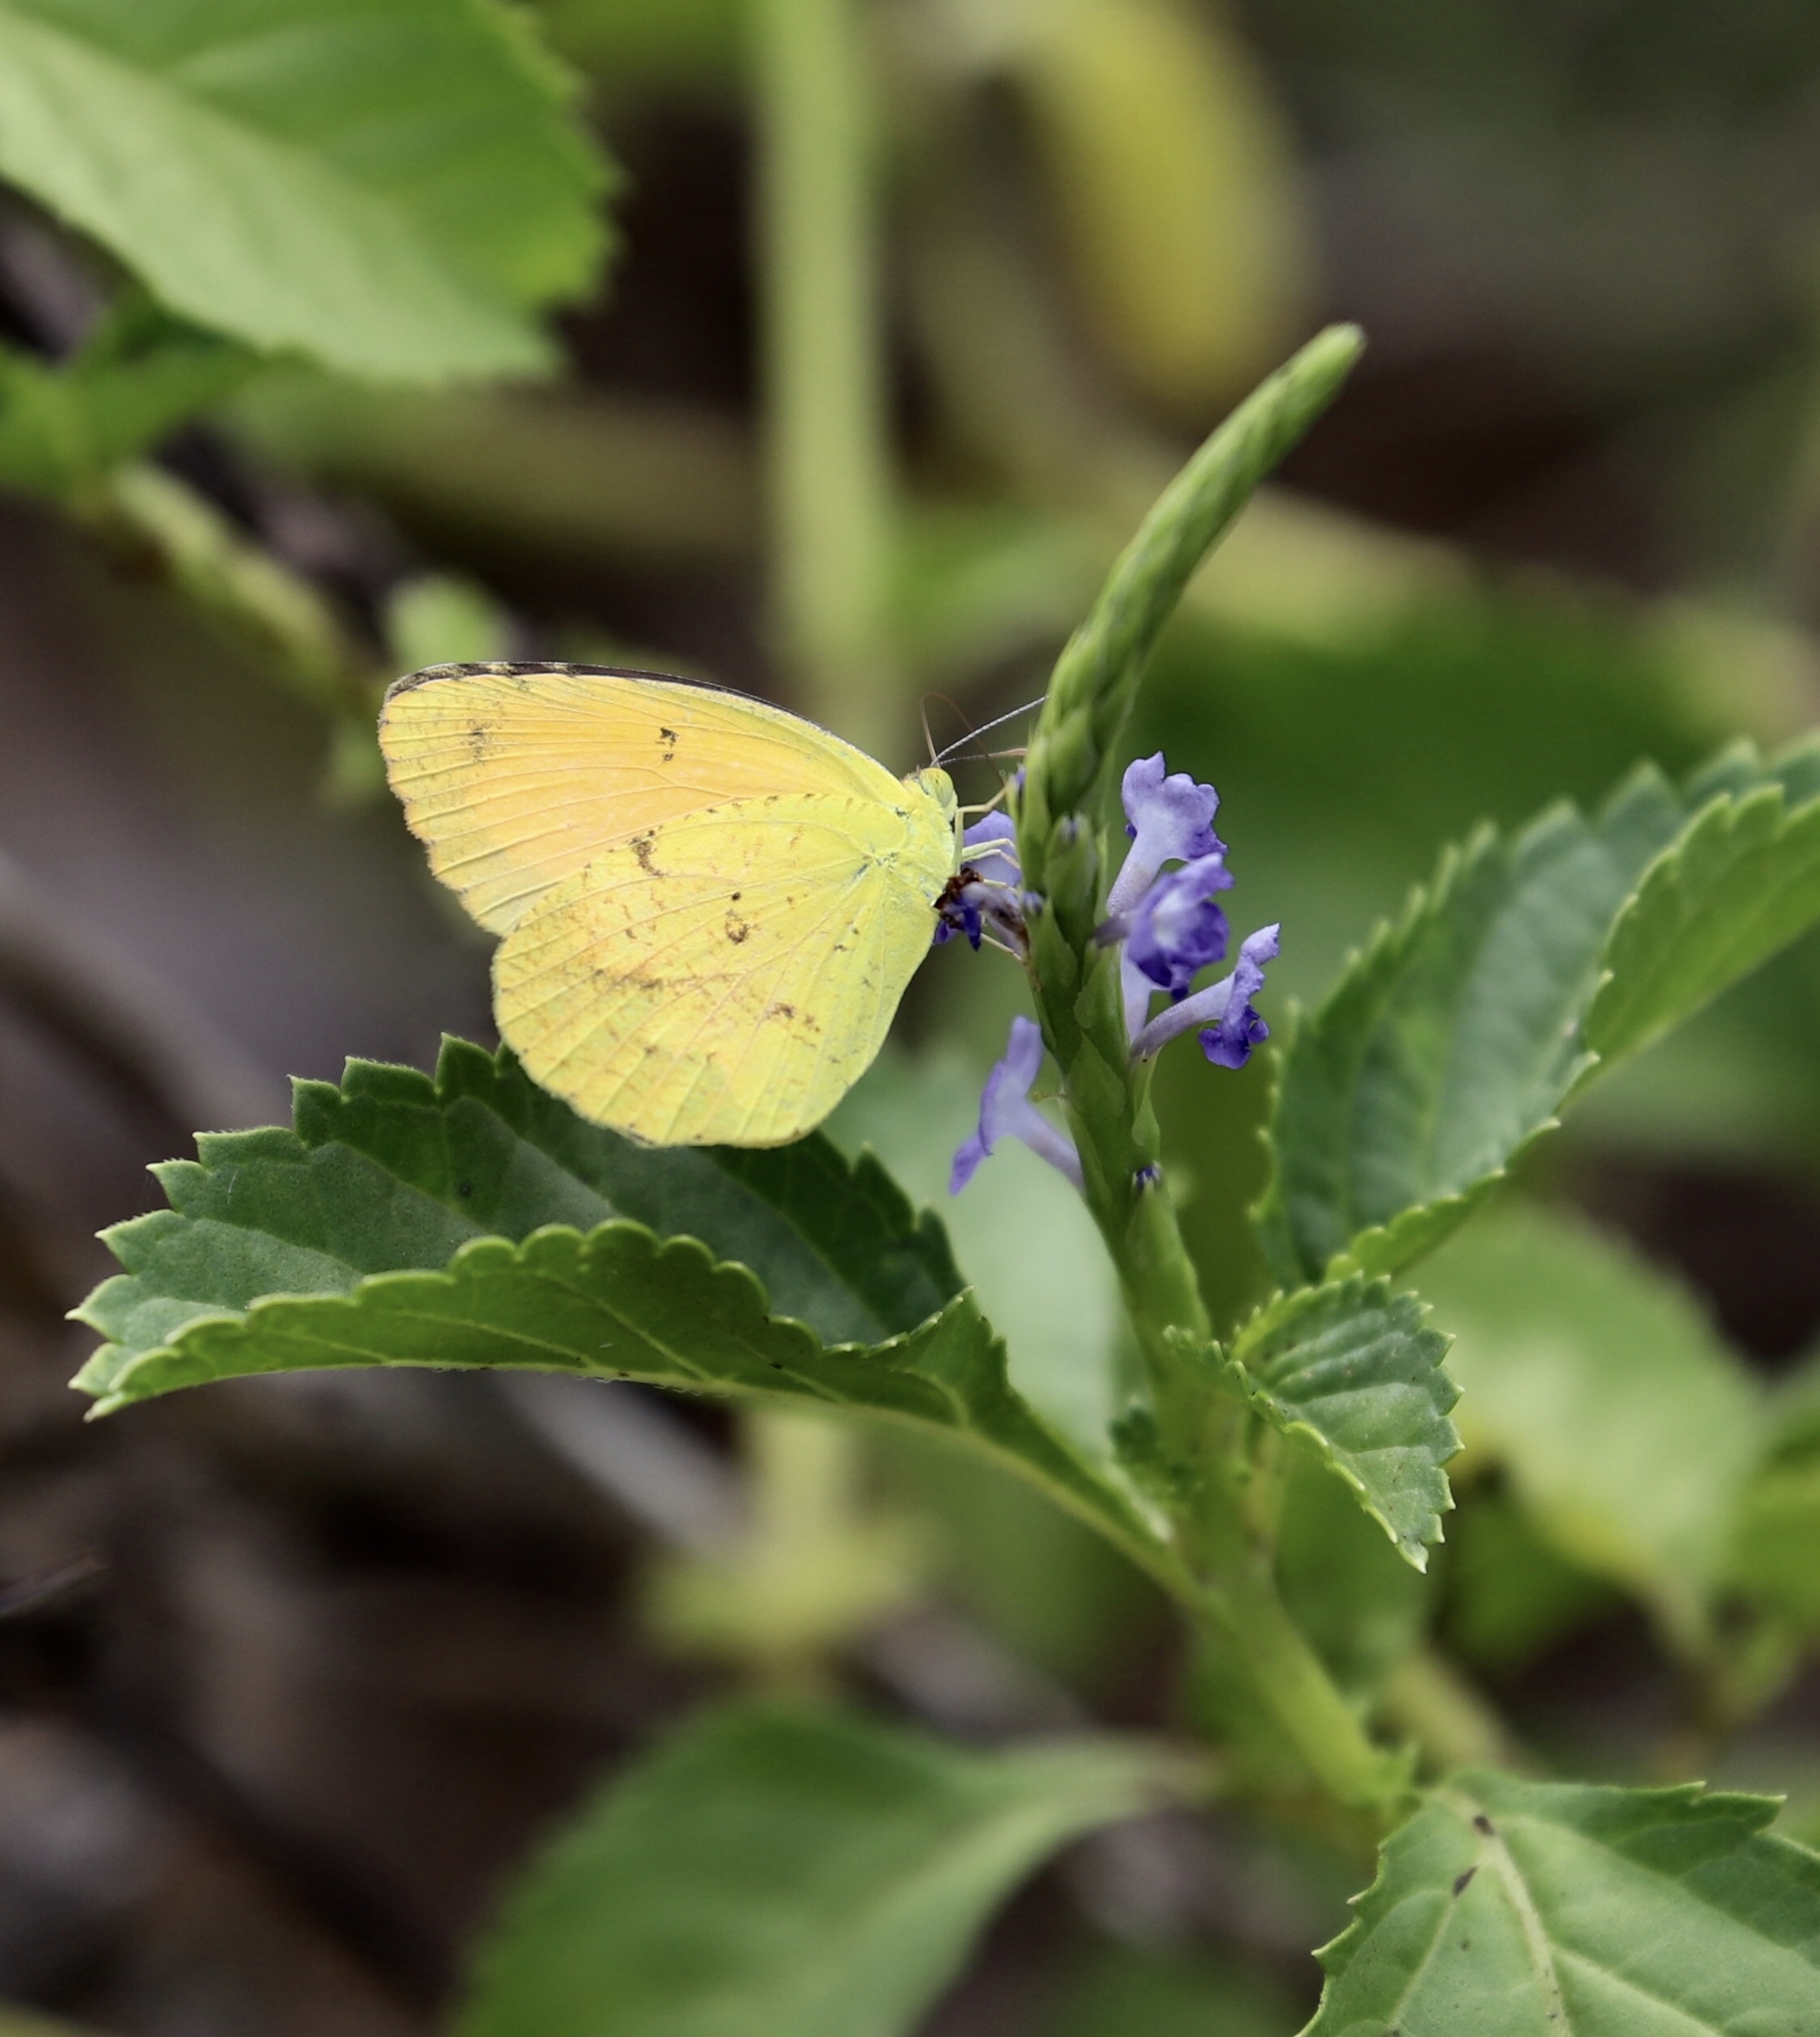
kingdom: Animalia
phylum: Arthropoda
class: Insecta
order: Lepidoptera
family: Pieridae
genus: Abaeis
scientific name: Abaeis nicippe
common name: Sleepy orange
